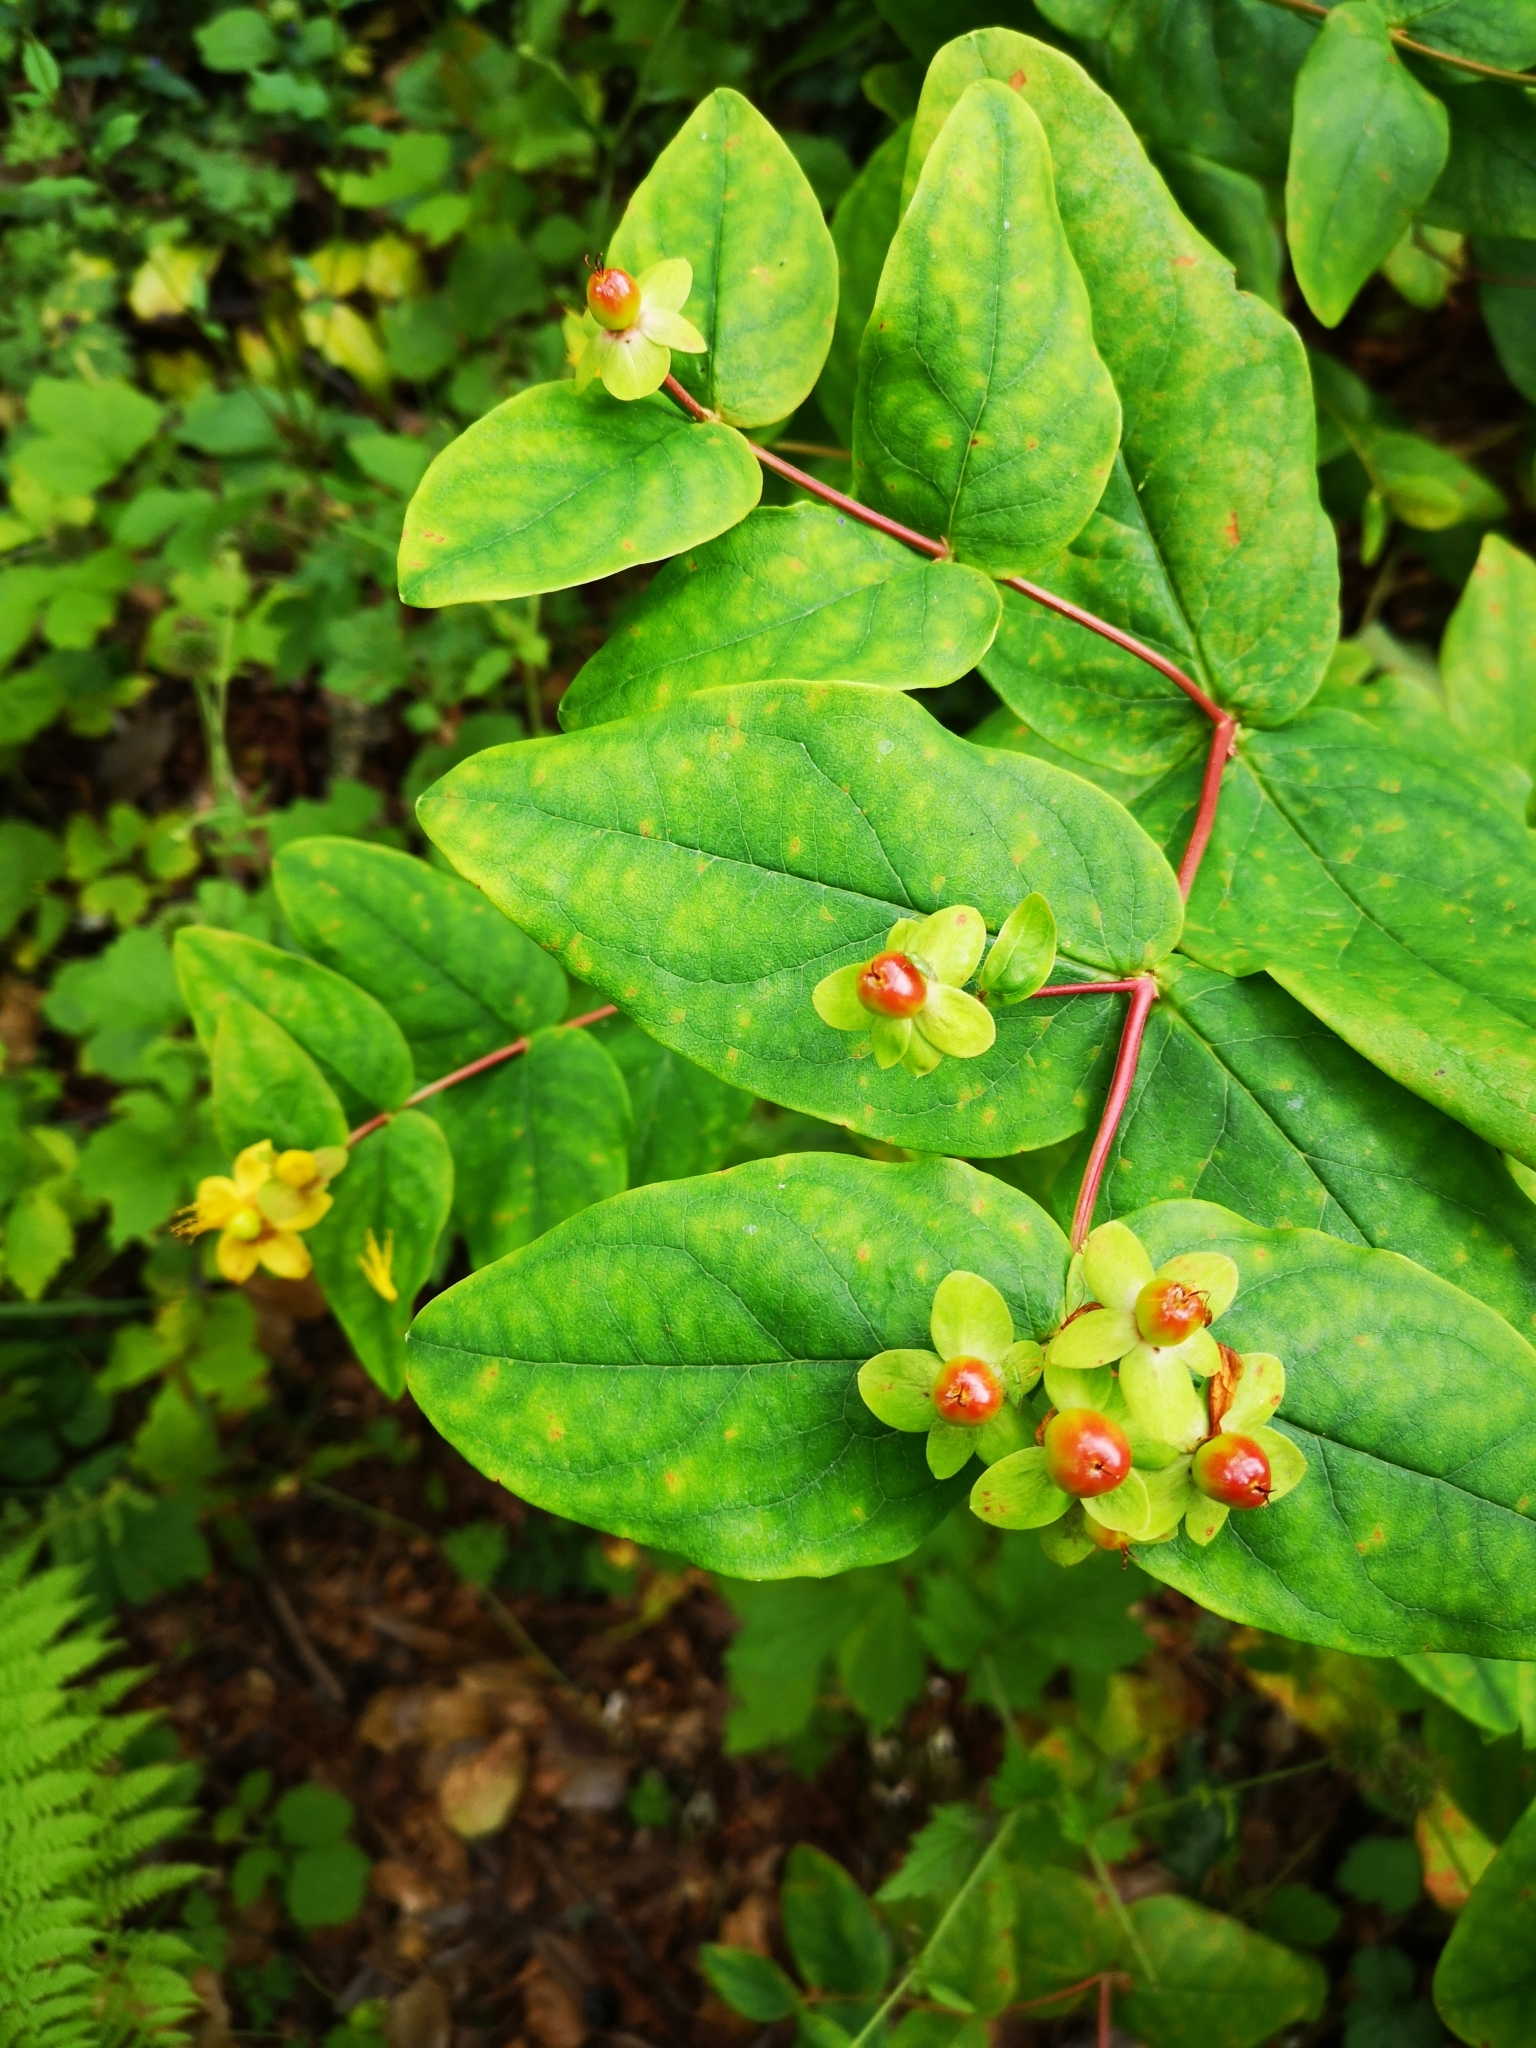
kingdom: Plantae
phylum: Tracheophyta
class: Magnoliopsida
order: Malpighiales
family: Hypericaceae
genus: Hypericum
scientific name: Hypericum androsaemum
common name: Sweet-amber
